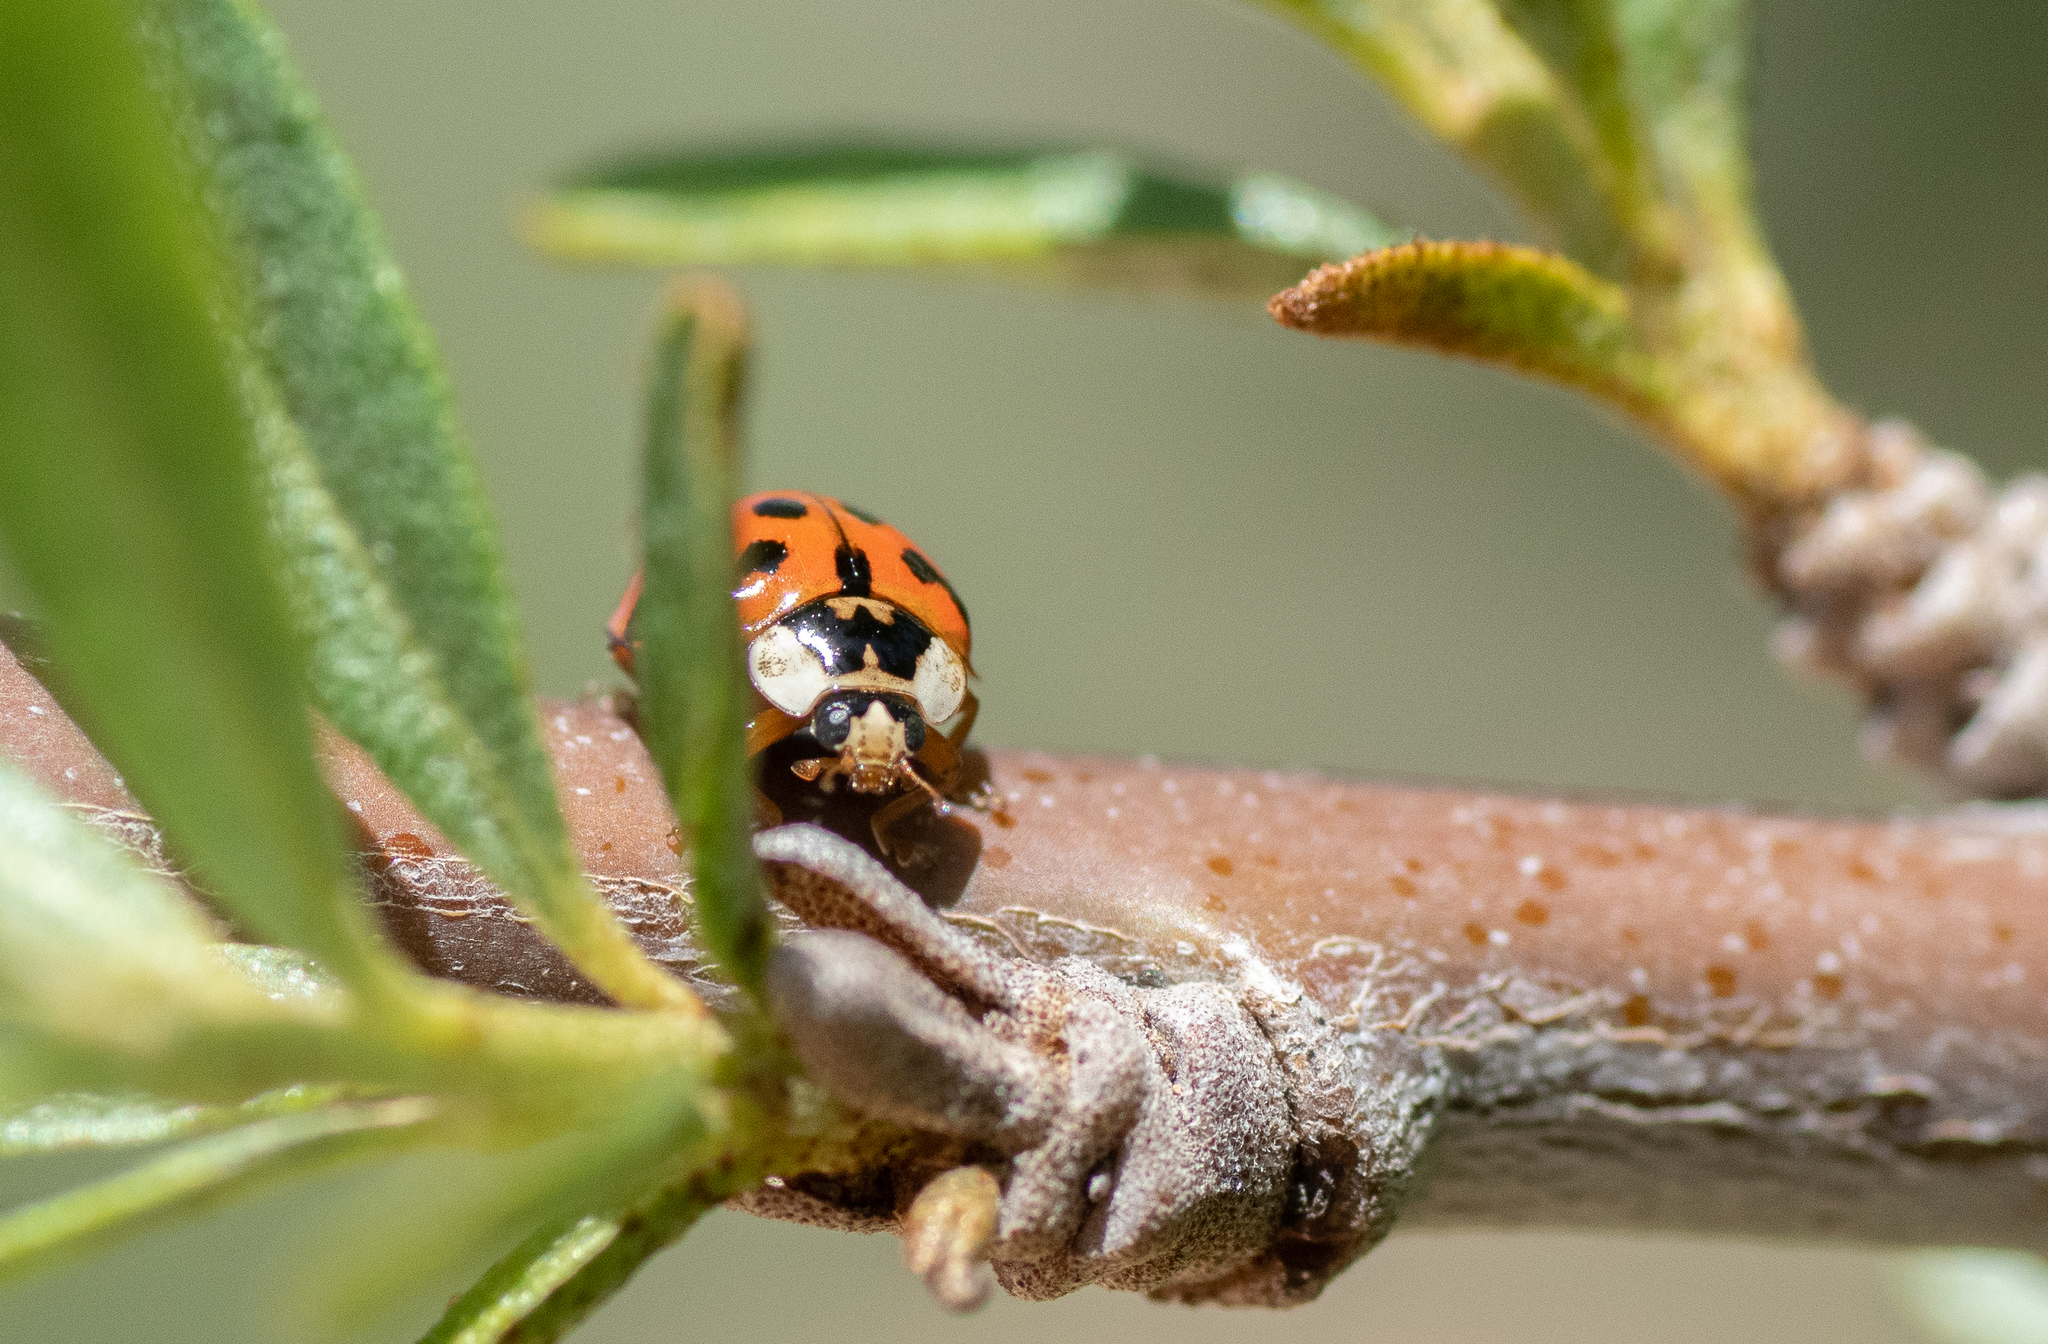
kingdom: Animalia
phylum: Arthropoda
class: Insecta
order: Coleoptera
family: Coccinellidae
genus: Harmonia
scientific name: Harmonia axyridis
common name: Harlequin ladybird
